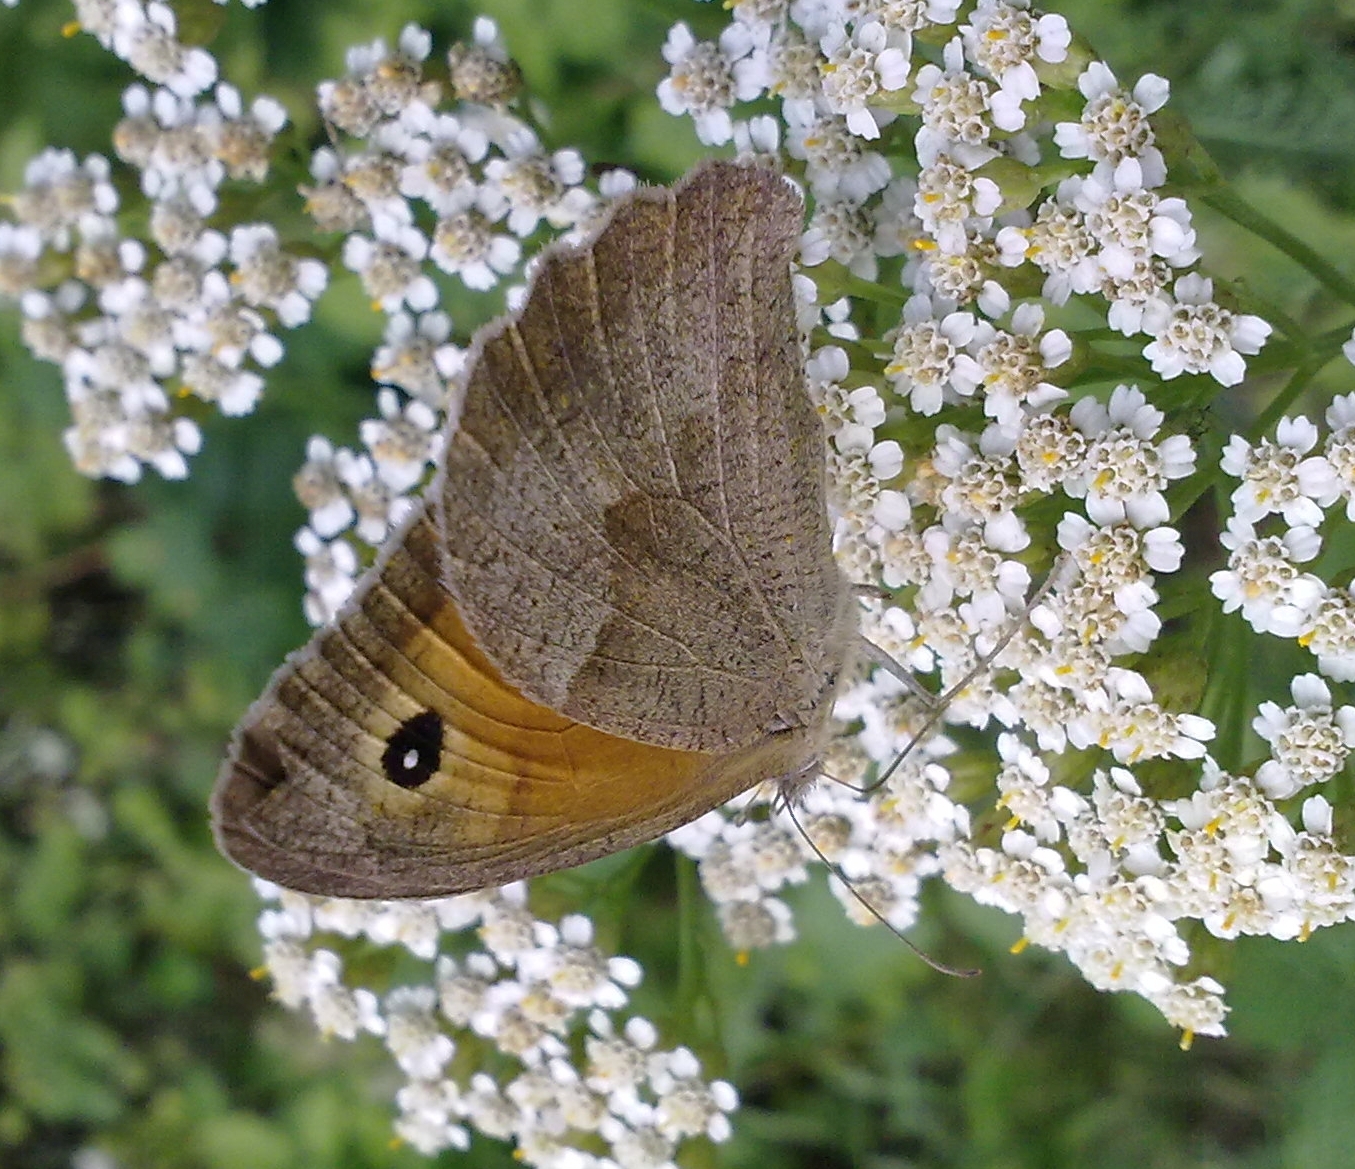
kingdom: Animalia
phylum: Arthropoda
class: Insecta
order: Lepidoptera
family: Nymphalidae
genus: Maniola
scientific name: Maniola jurtina
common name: Meadow brown
